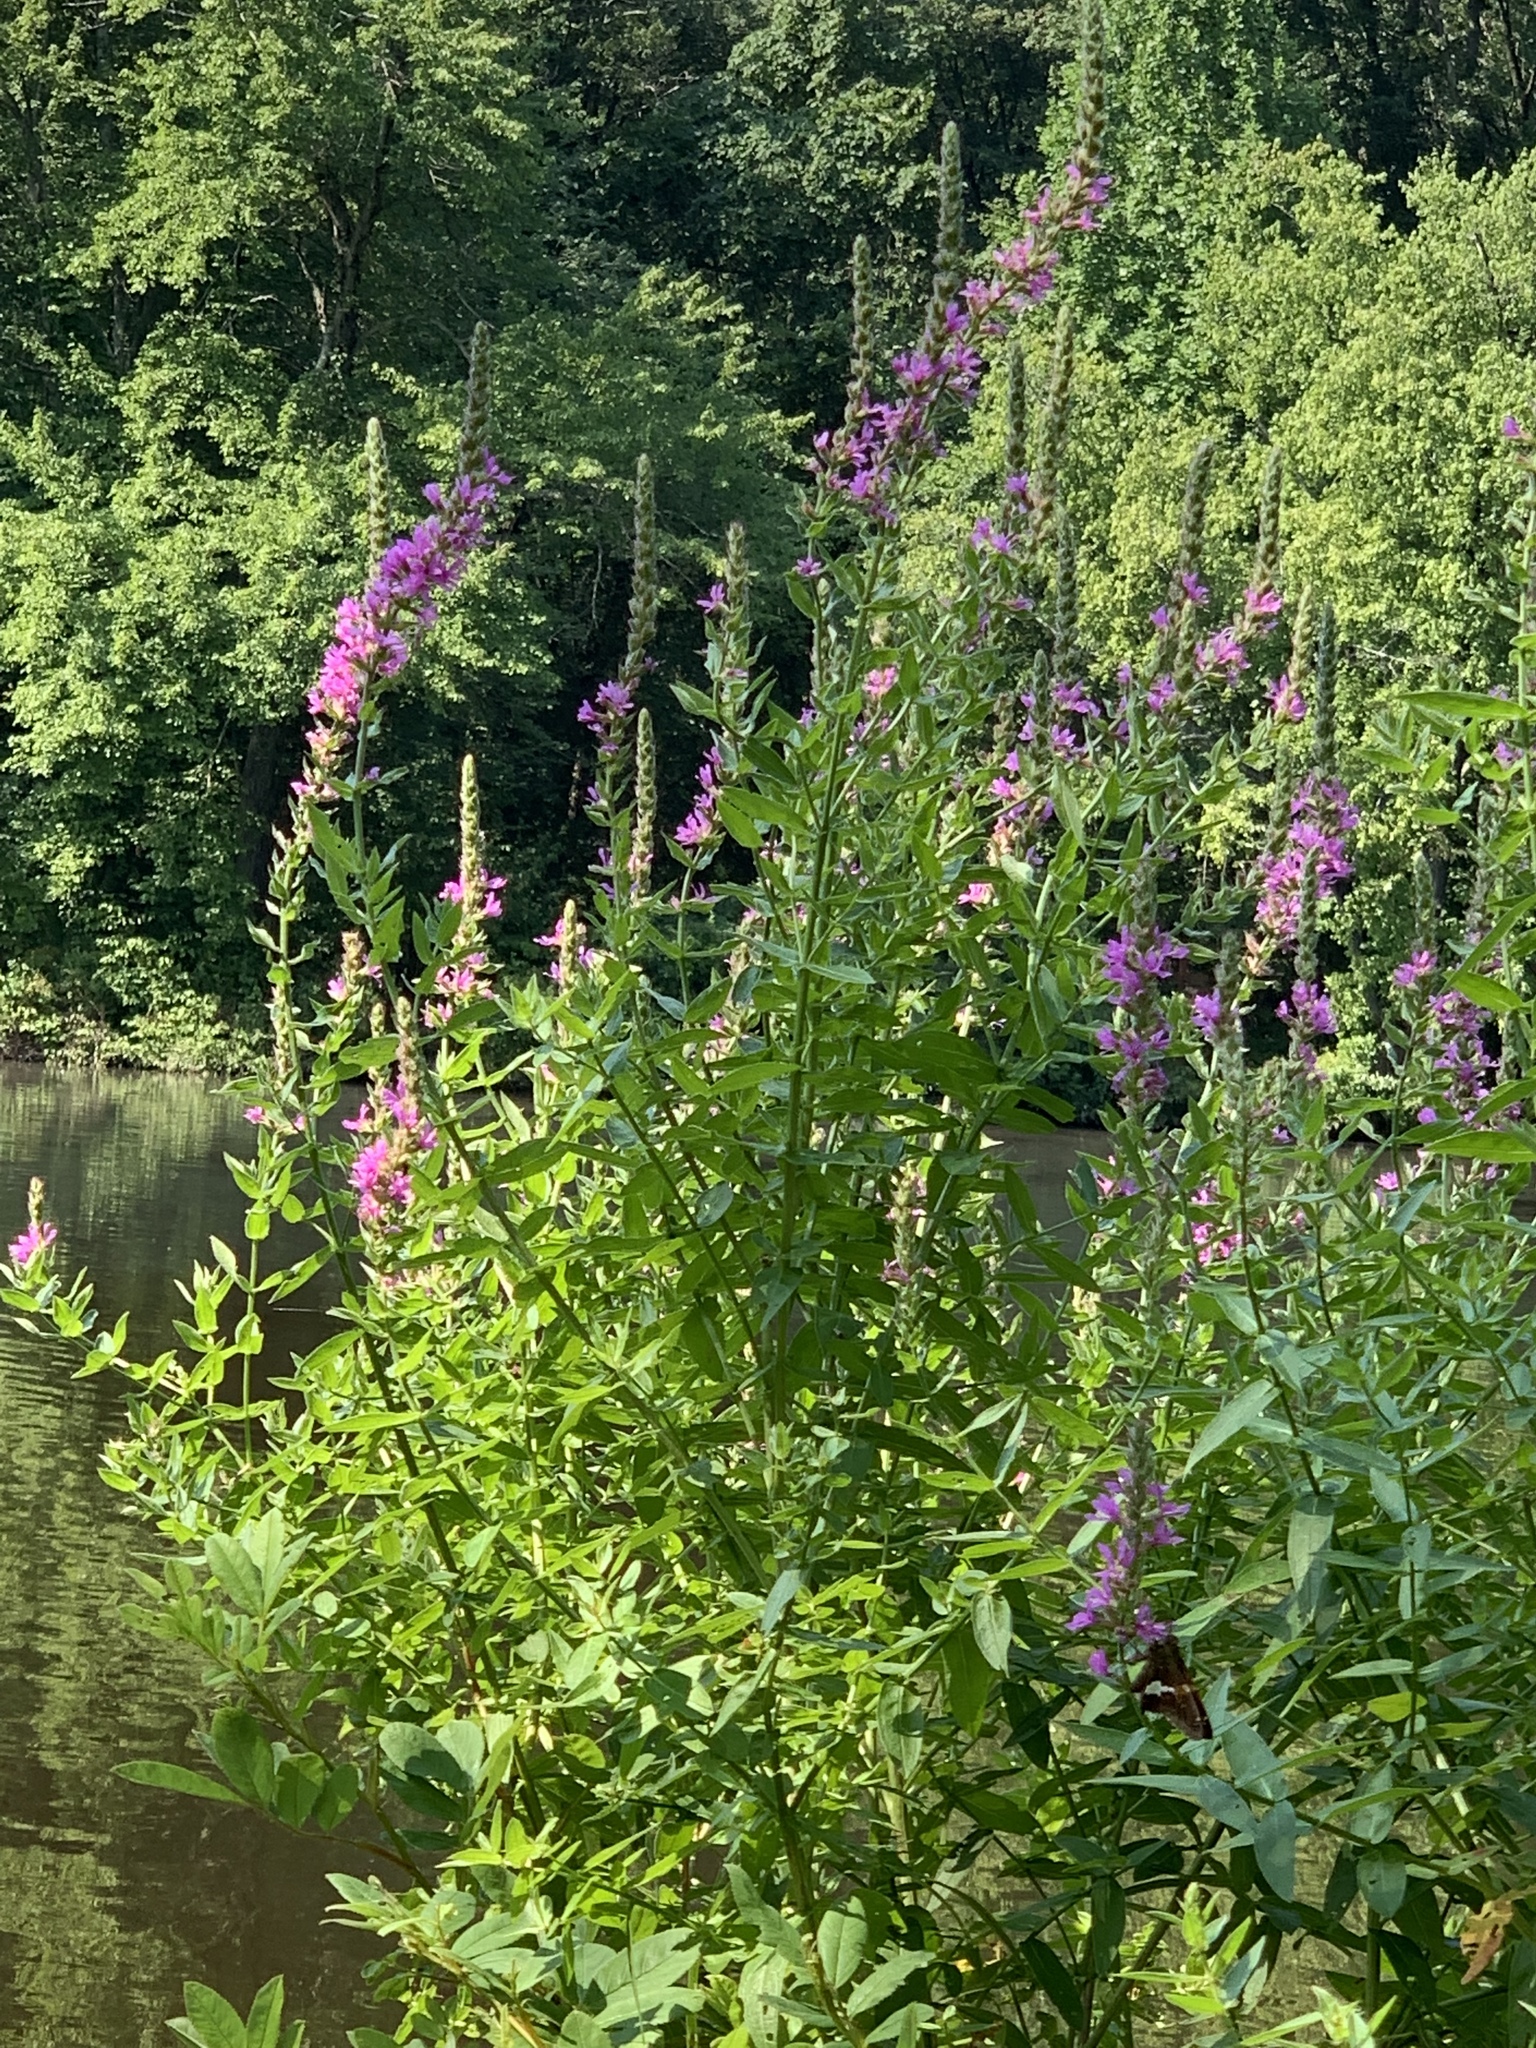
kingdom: Plantae
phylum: Tracheophyta
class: Magnoliopsida
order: Myrtales
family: Lythraceae
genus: Lythrum
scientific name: Lythrum salicaria
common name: Purple loosestrife
